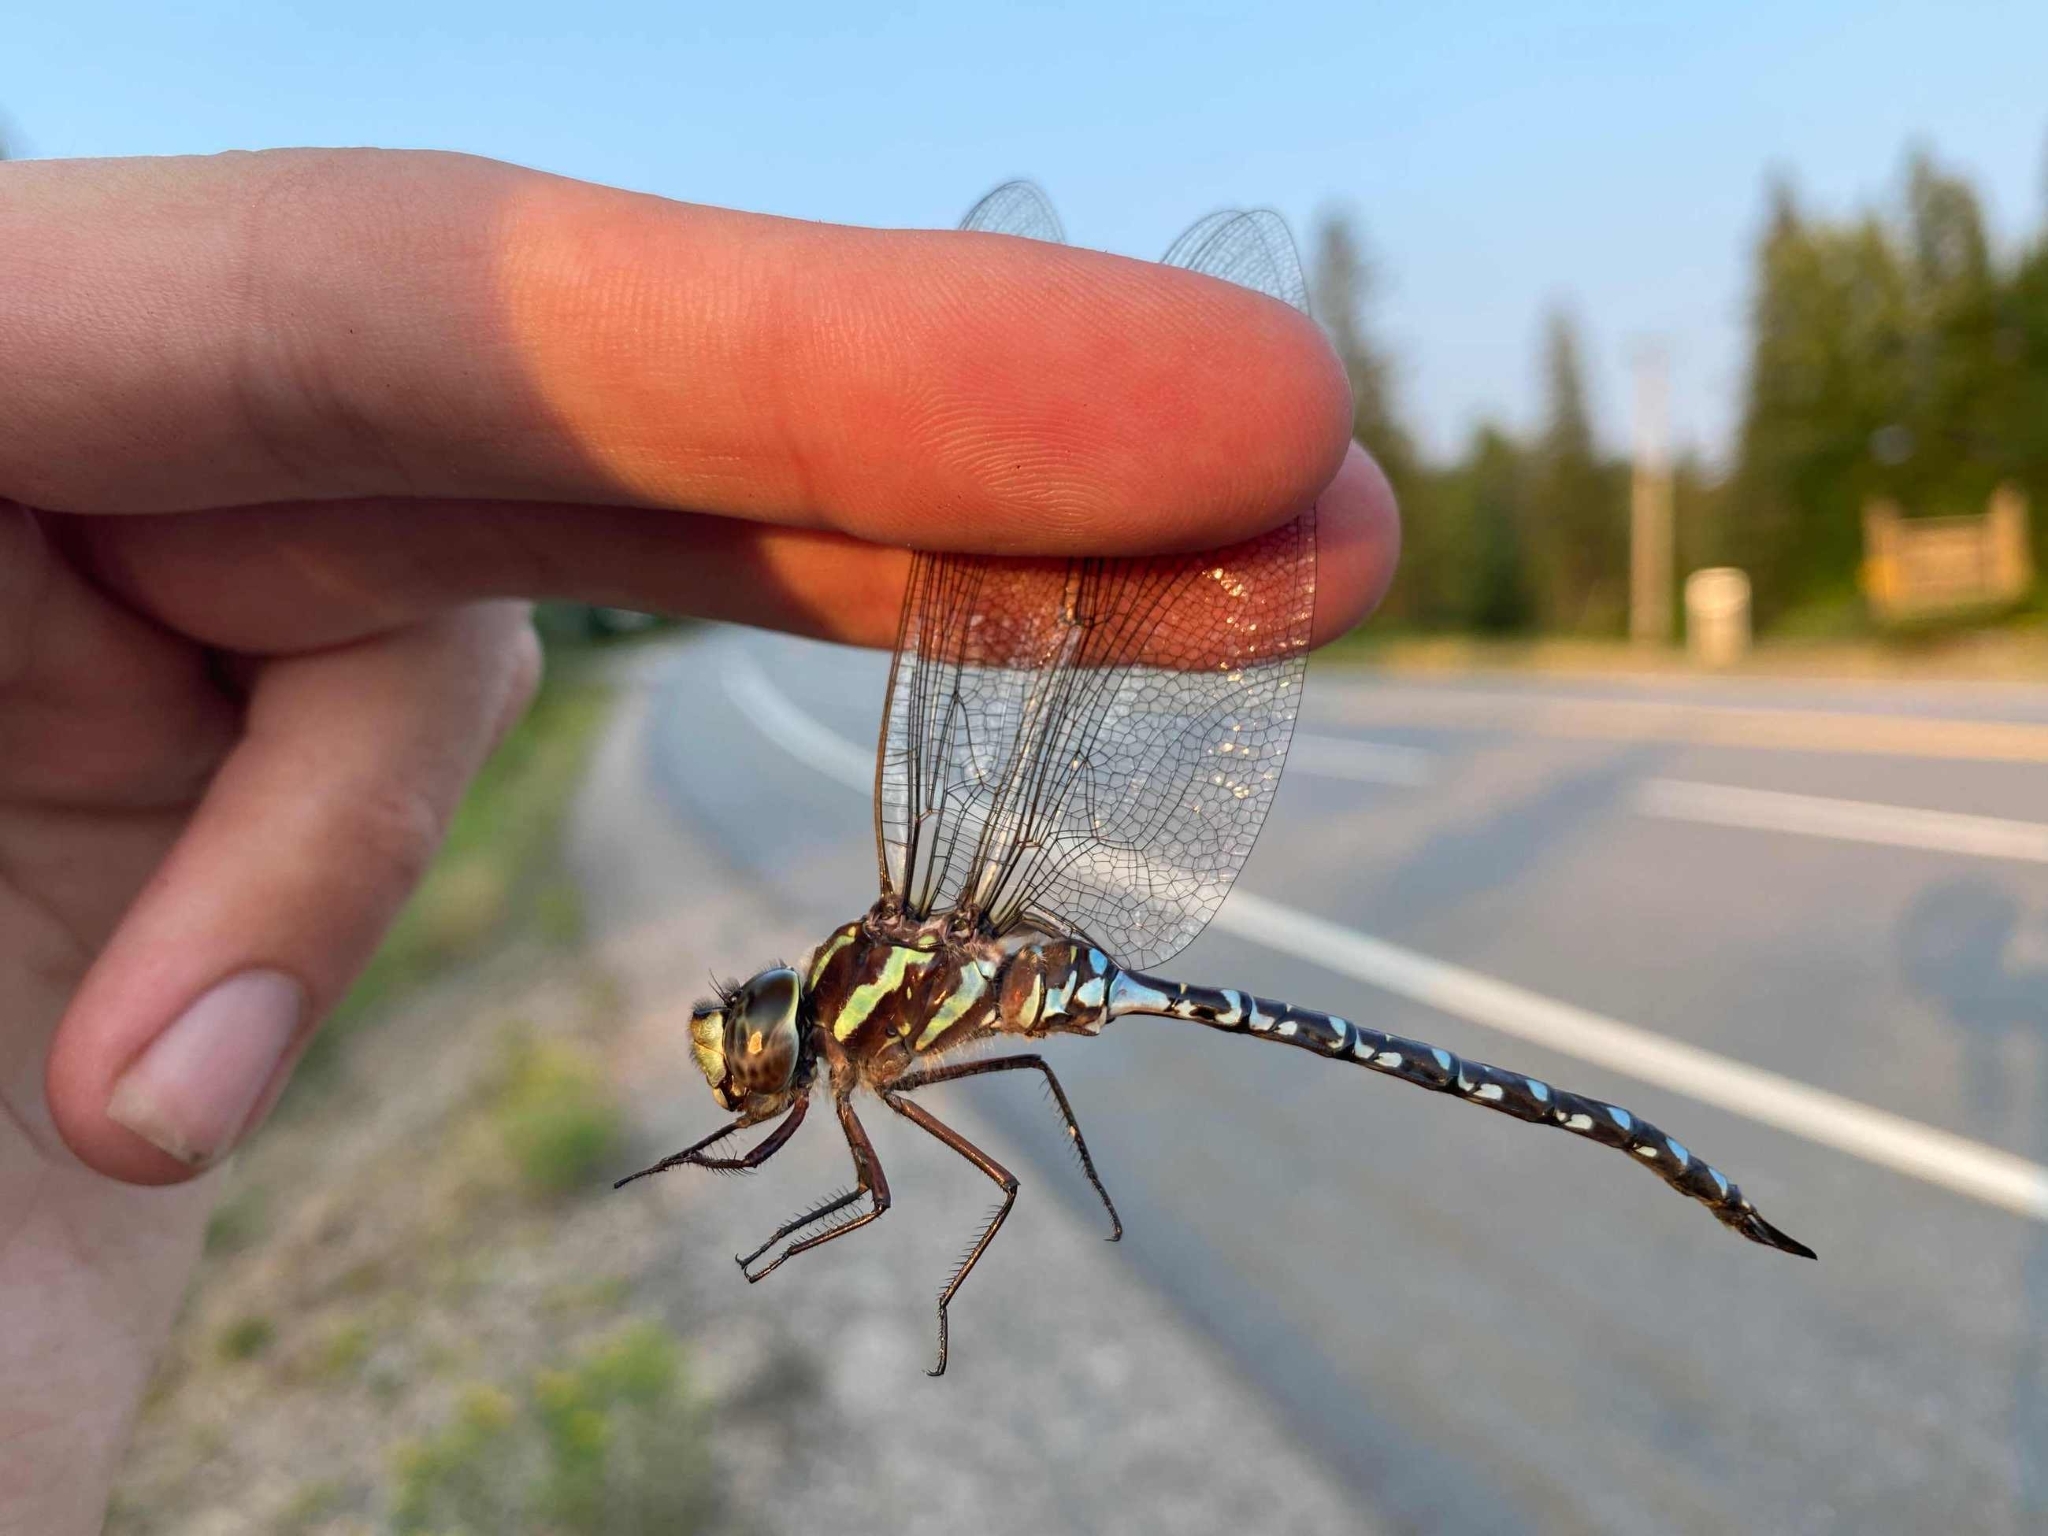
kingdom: Animalia
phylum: Arthropoda
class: Insecta
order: Odonata
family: Aeshnidae
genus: Aeshna
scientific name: Aeshna verticalis
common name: Green-striped darner
